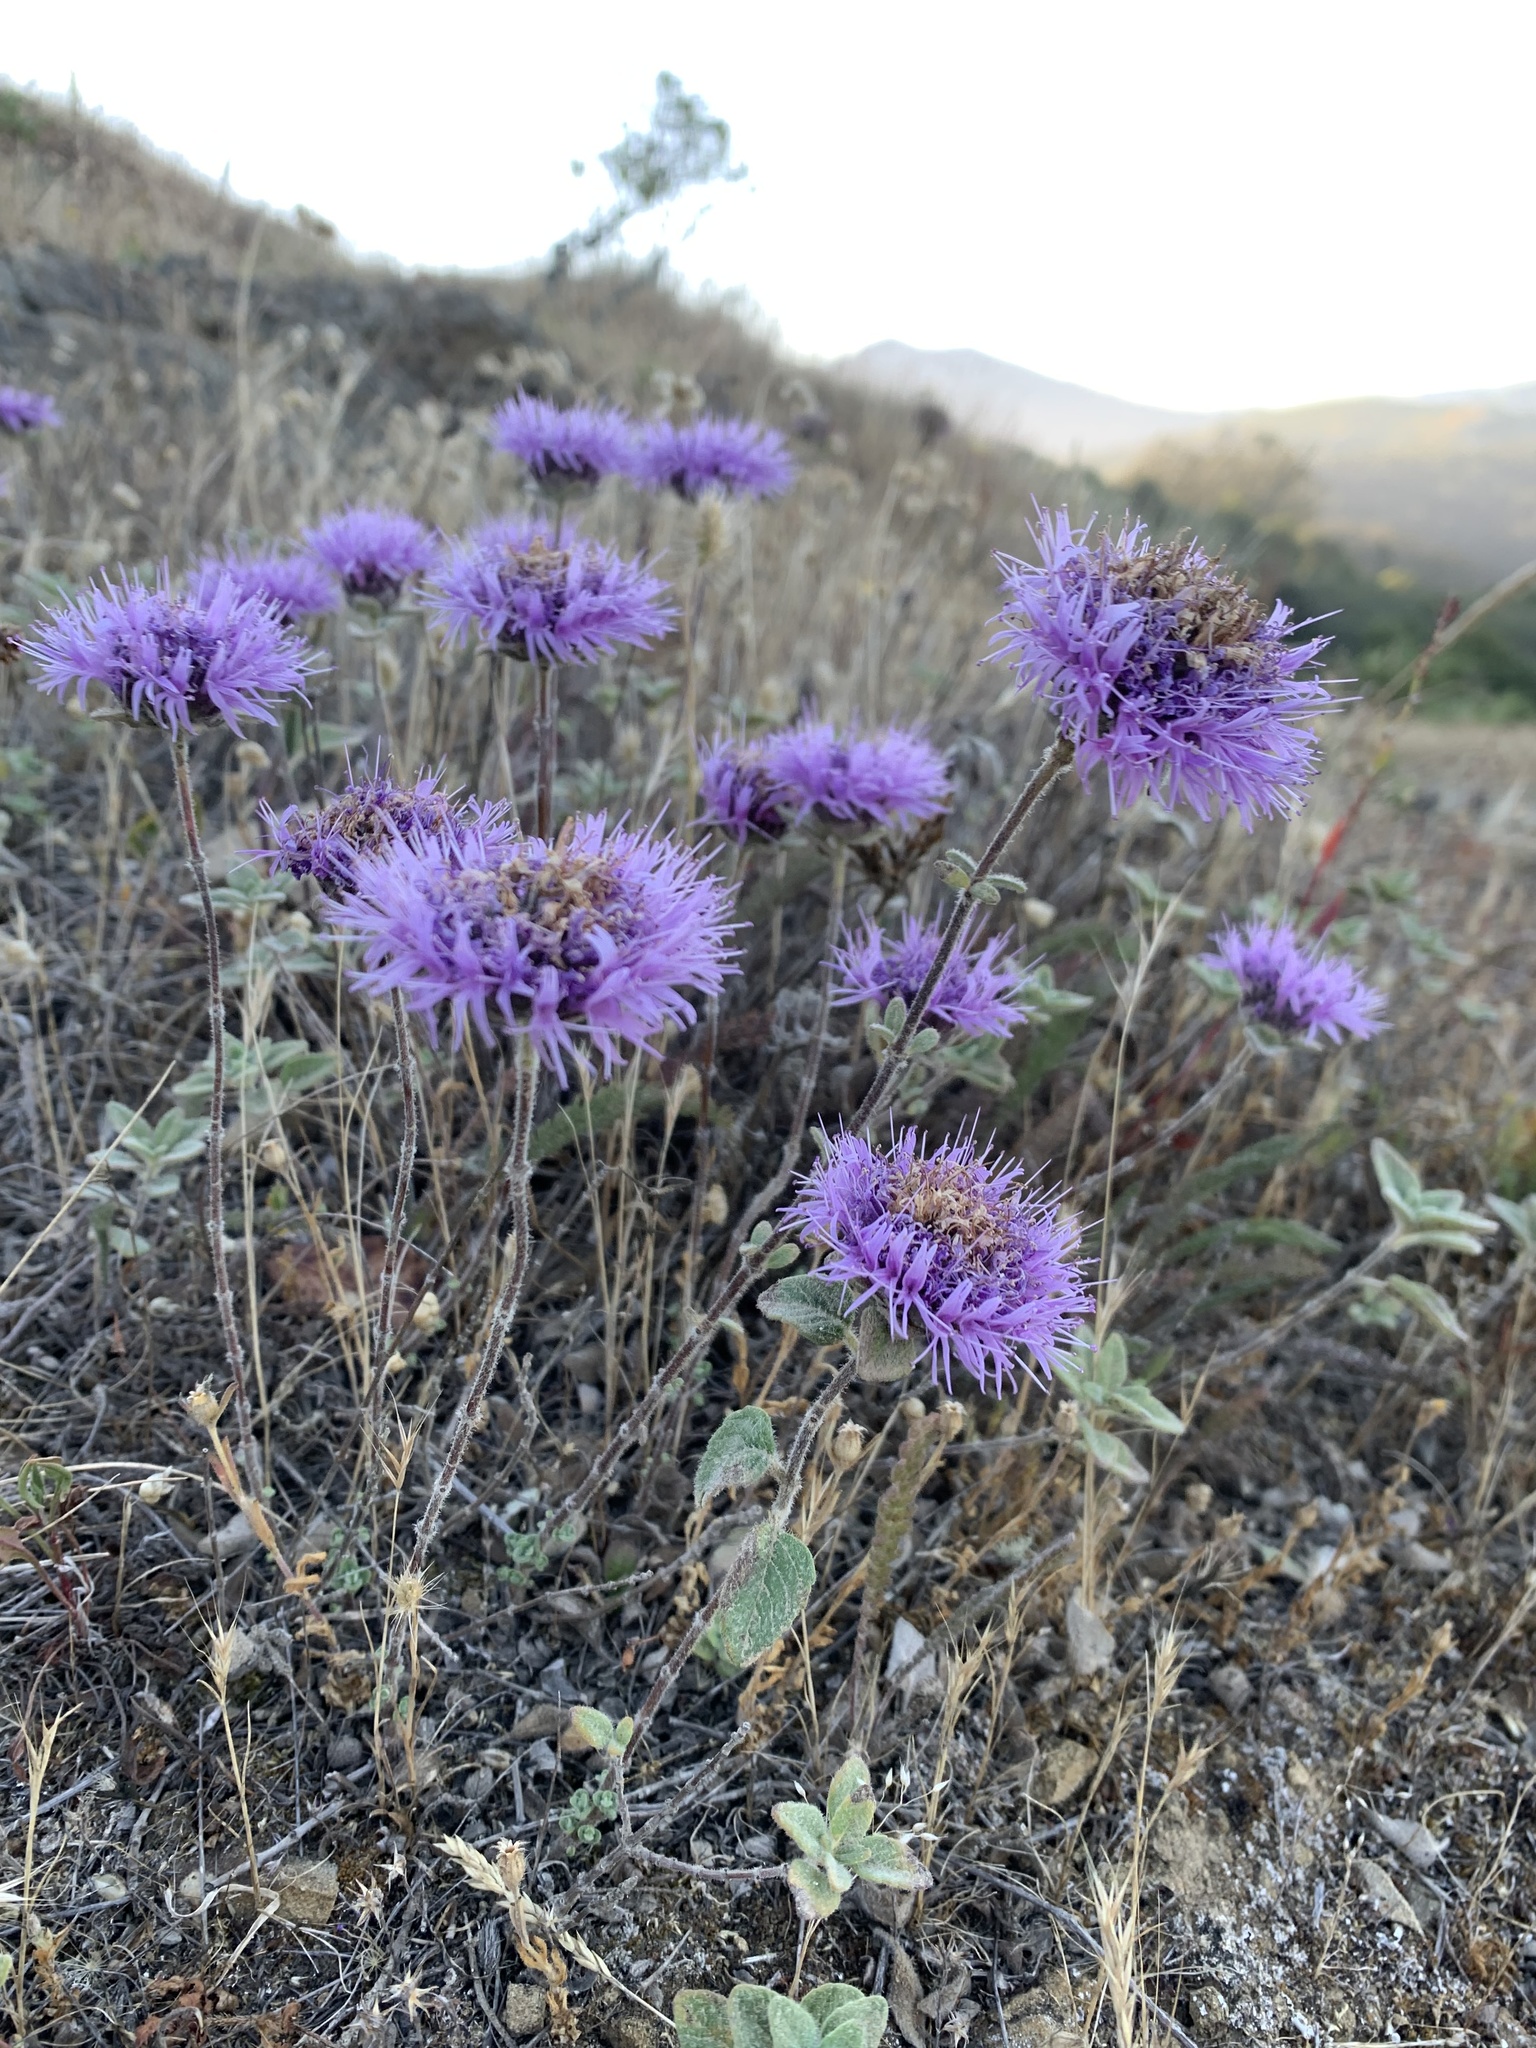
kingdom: Plantae
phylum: Tracheophyta
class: Magnoliopsida
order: Lamiales
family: Lamiaceae
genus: Monardella
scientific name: Monardella odoratissima
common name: Pacific monardella
